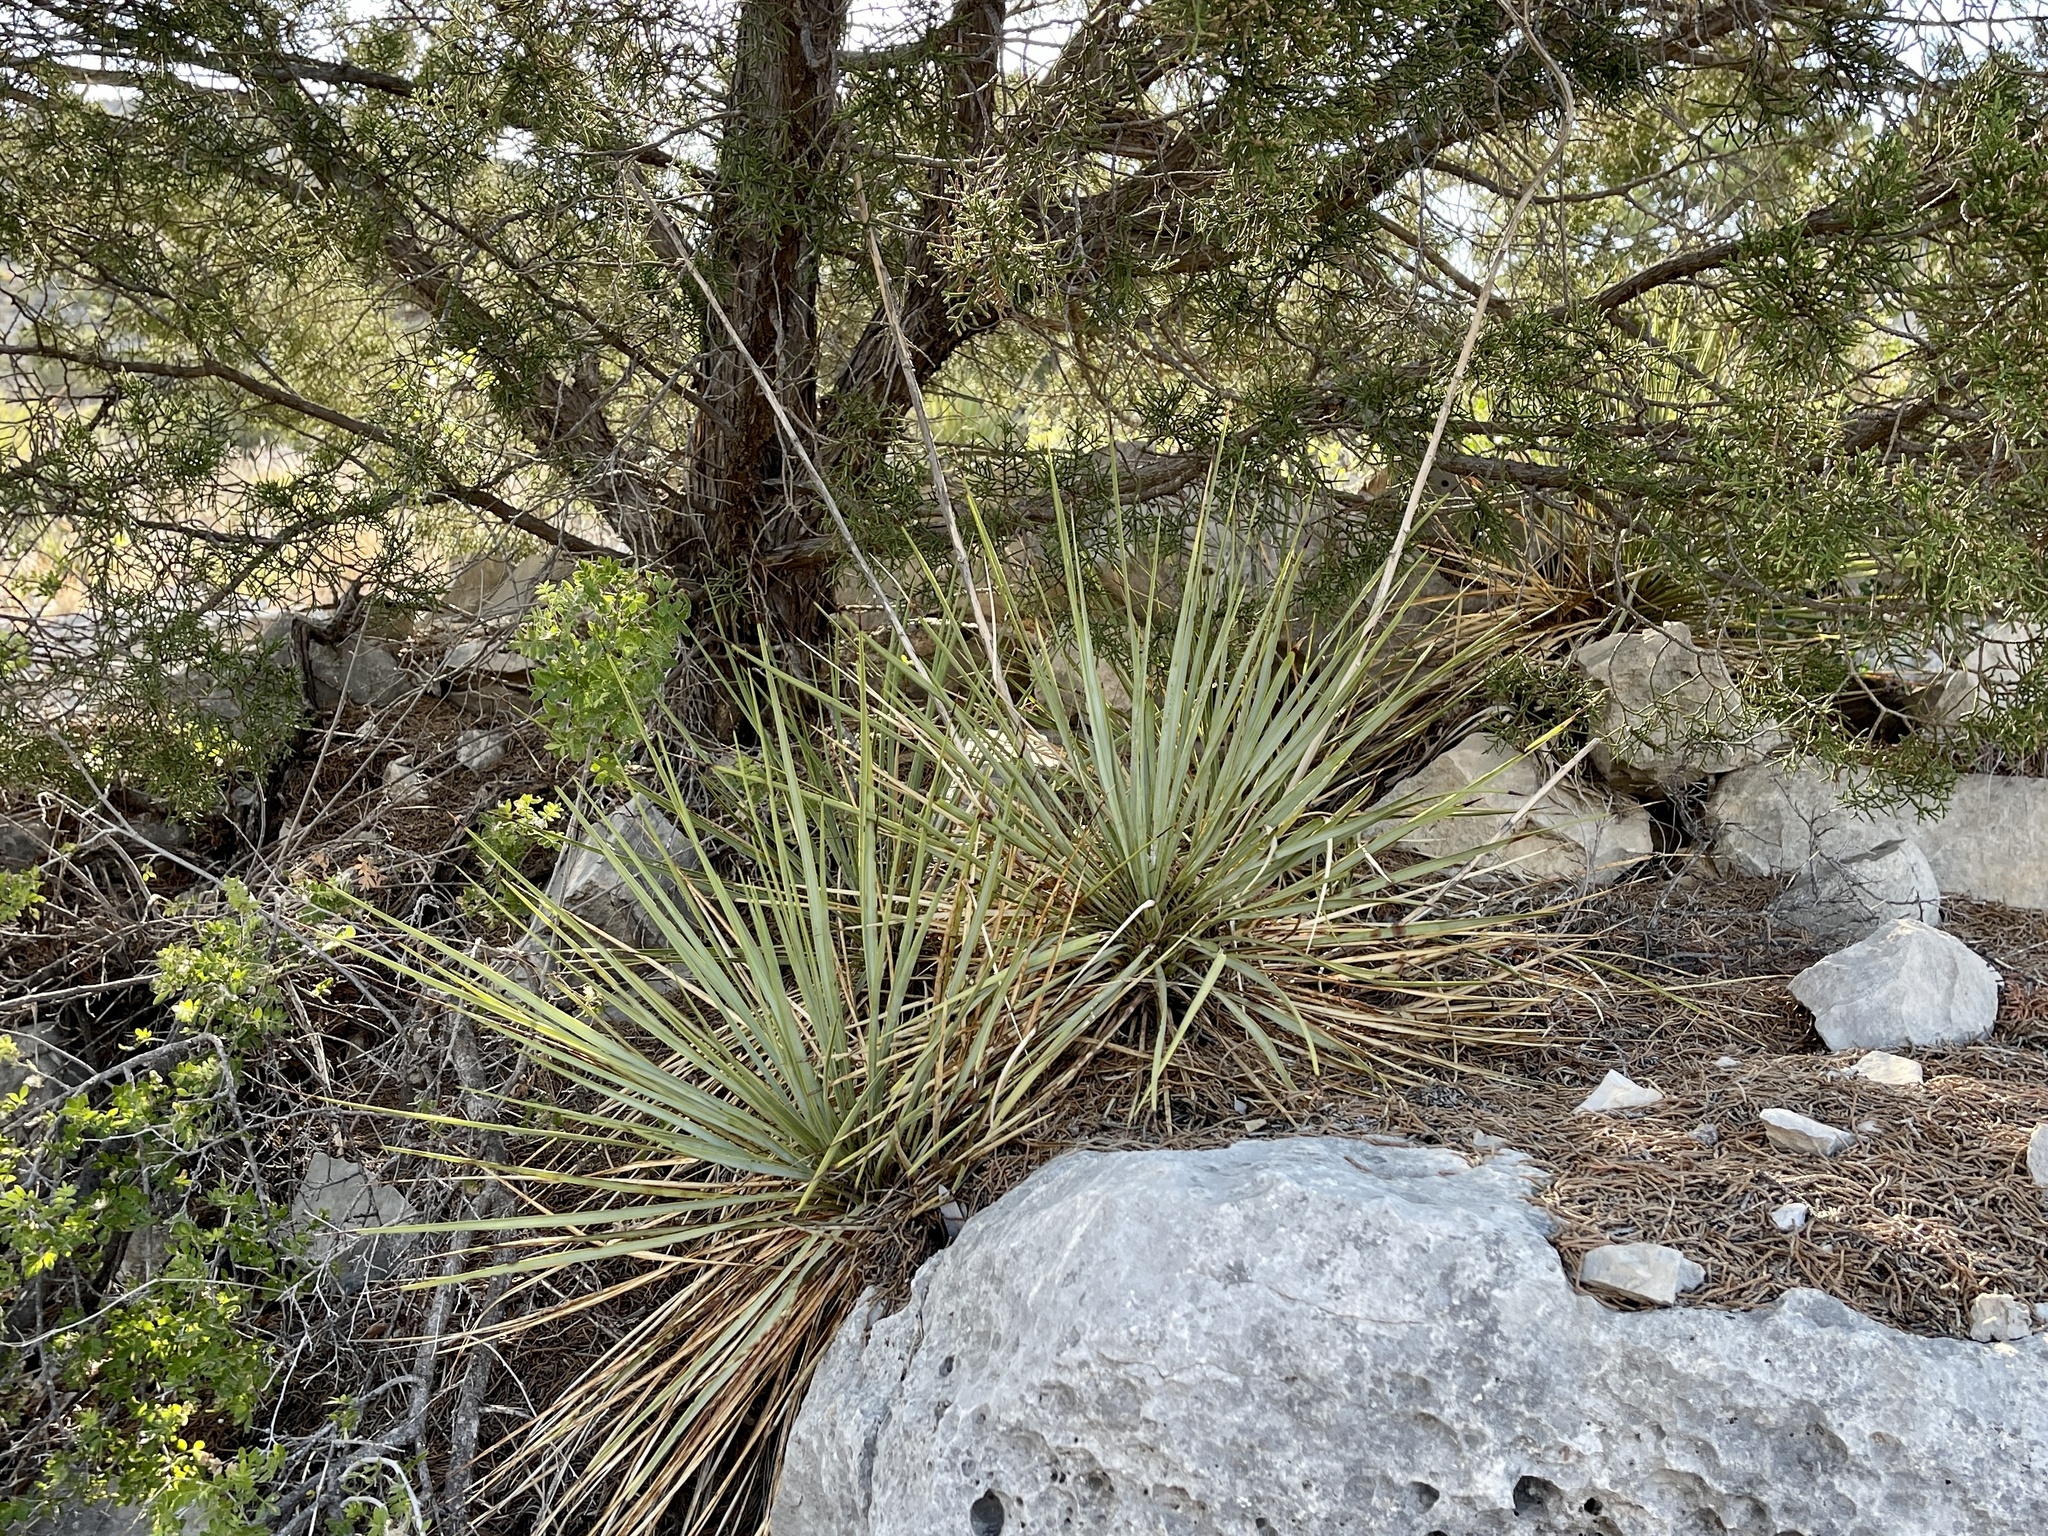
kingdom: Plantae
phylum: Tracheophyta
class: Liliopsida
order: Asparagales
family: Asparagaceae
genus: Yucca
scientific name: Yucca reverchonii
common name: San angelo yucca
